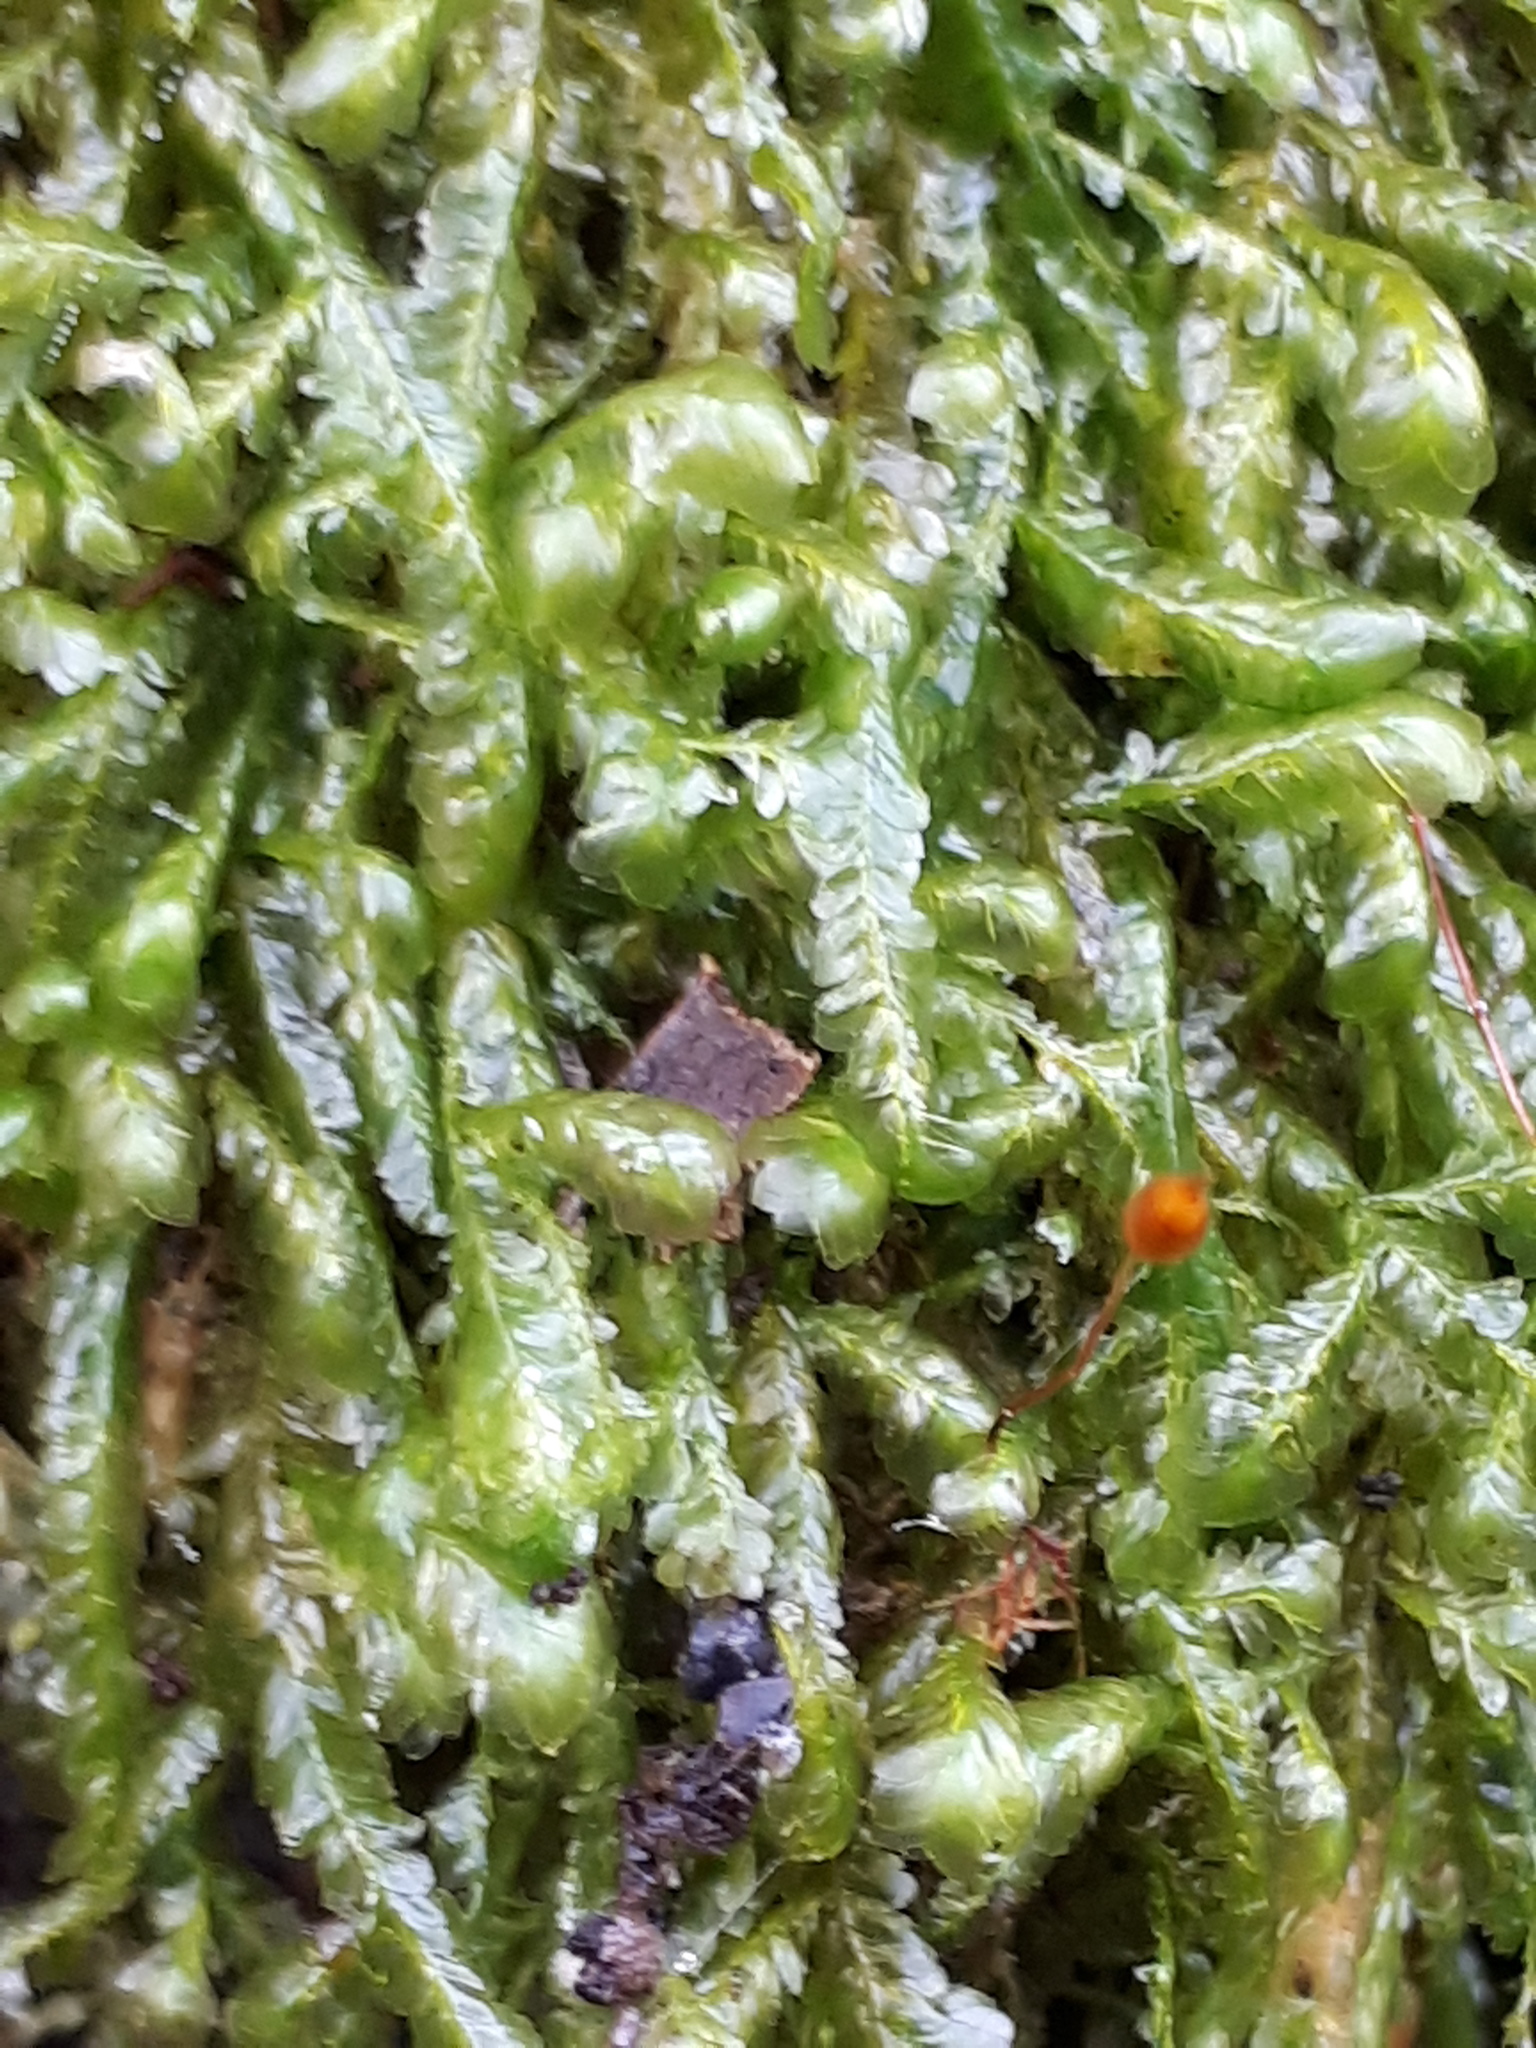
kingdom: Plantae
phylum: Bryophyta
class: Bryopsida
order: Hypnales
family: Neckeraceae
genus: Homalia
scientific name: Homalia trichomanoides
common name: Lime homalia moss
